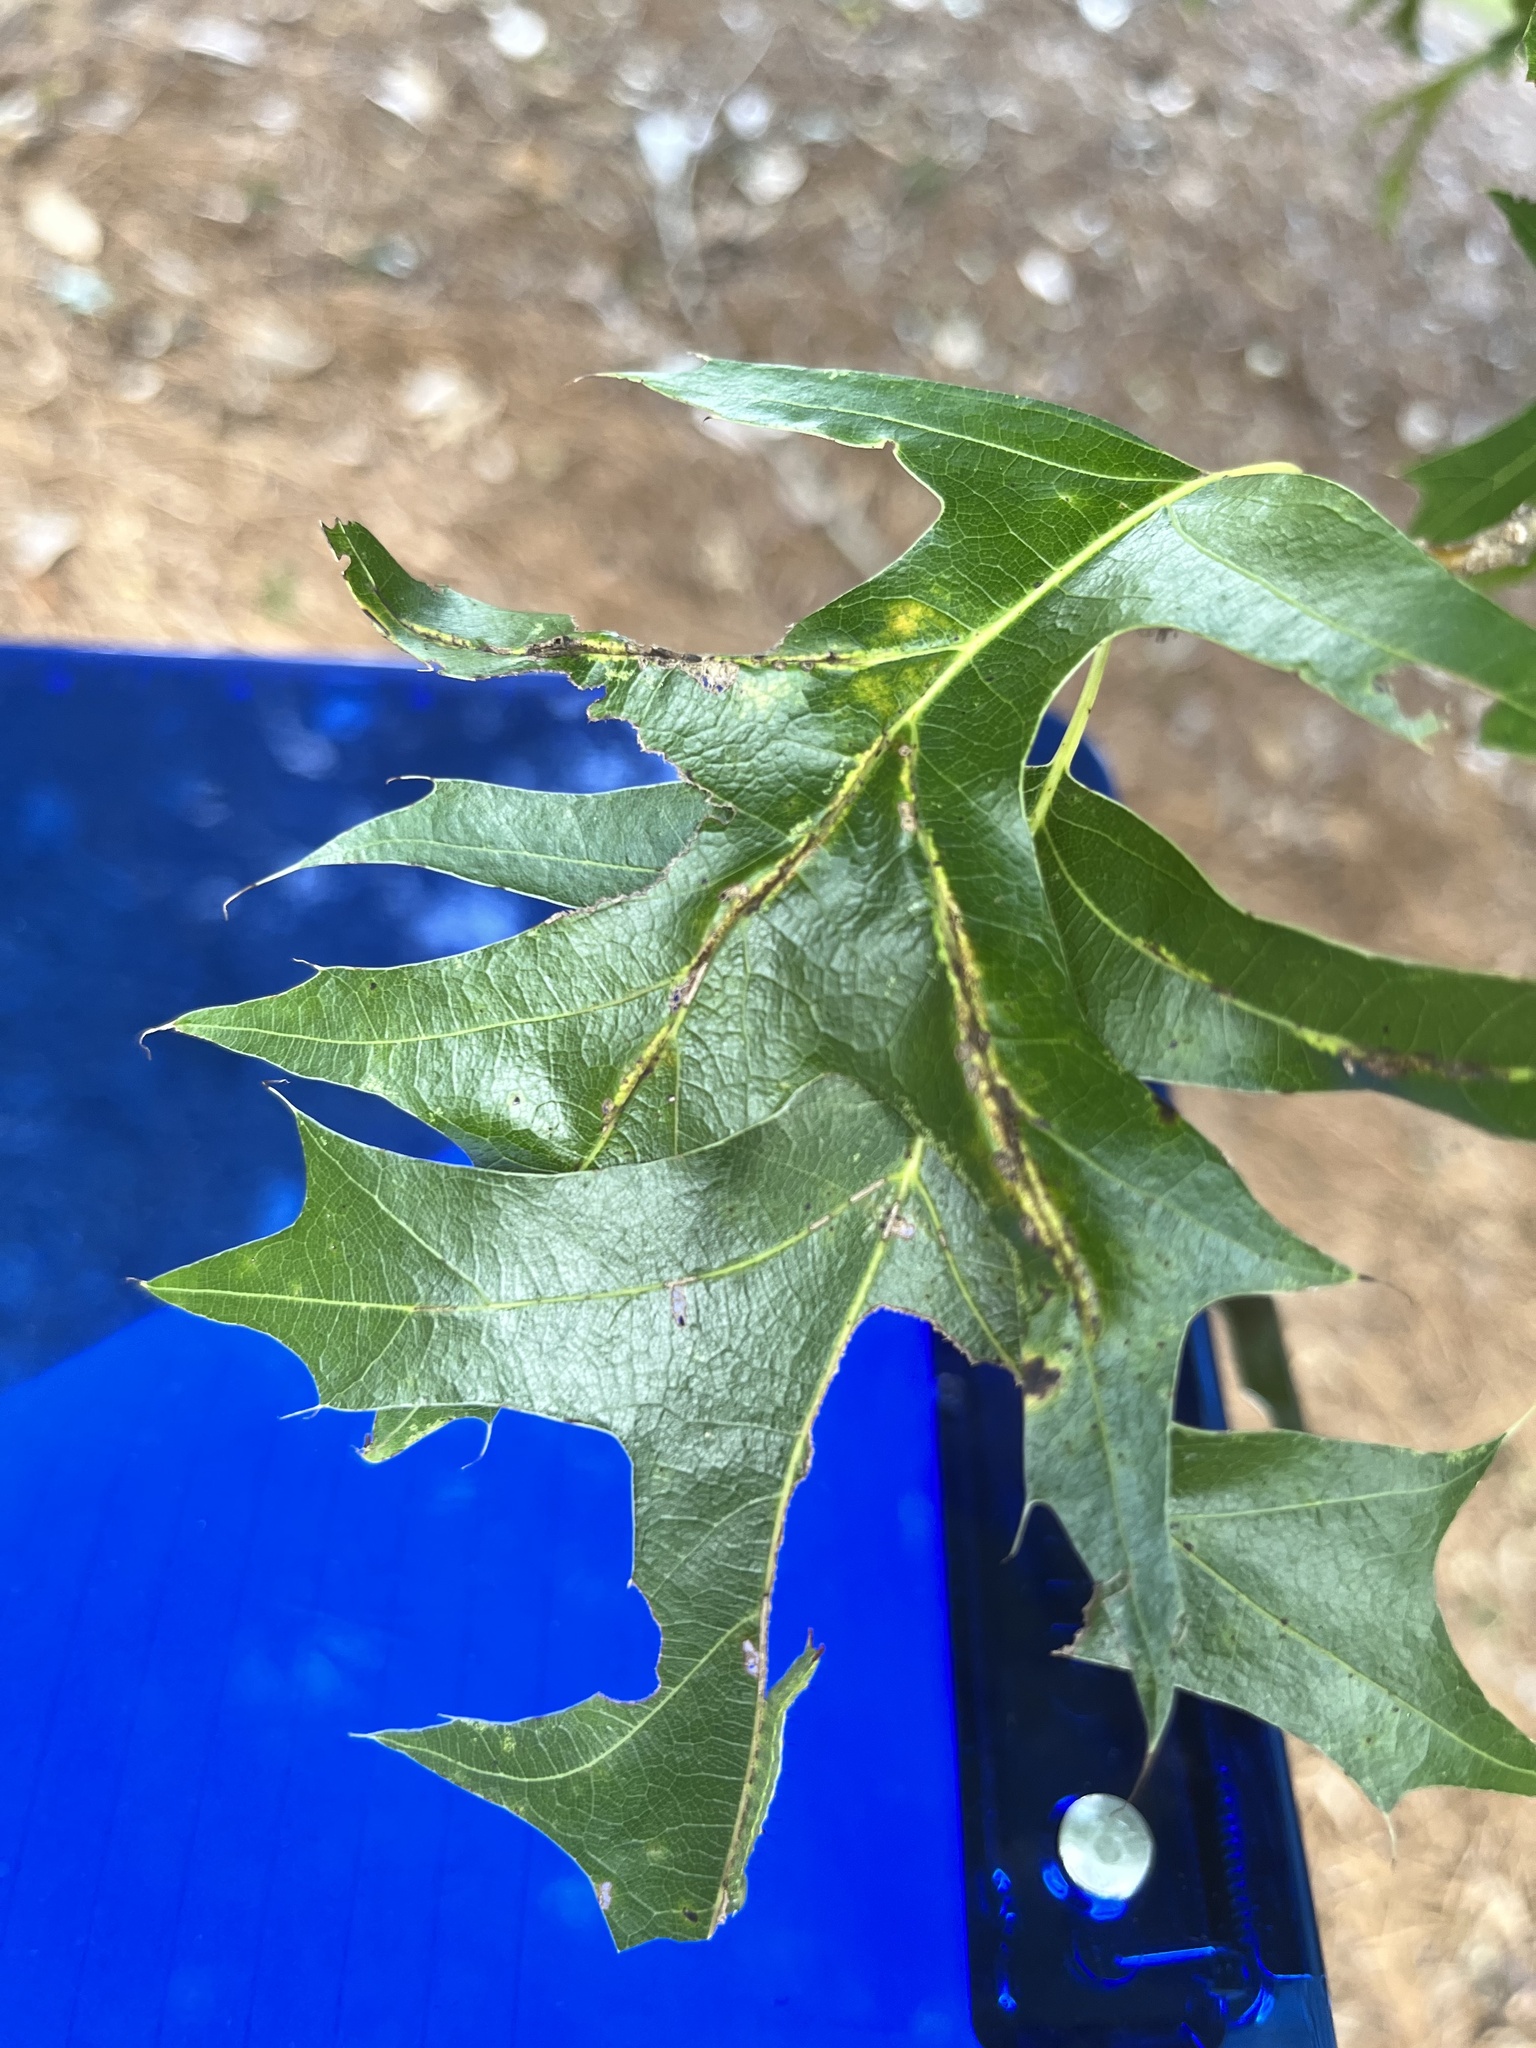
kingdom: Animalia
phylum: Arthropoda
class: Insecta
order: Diptera
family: Cecidomyiidae
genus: Macrodiplosis
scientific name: Macrodiplosis q-orucum
